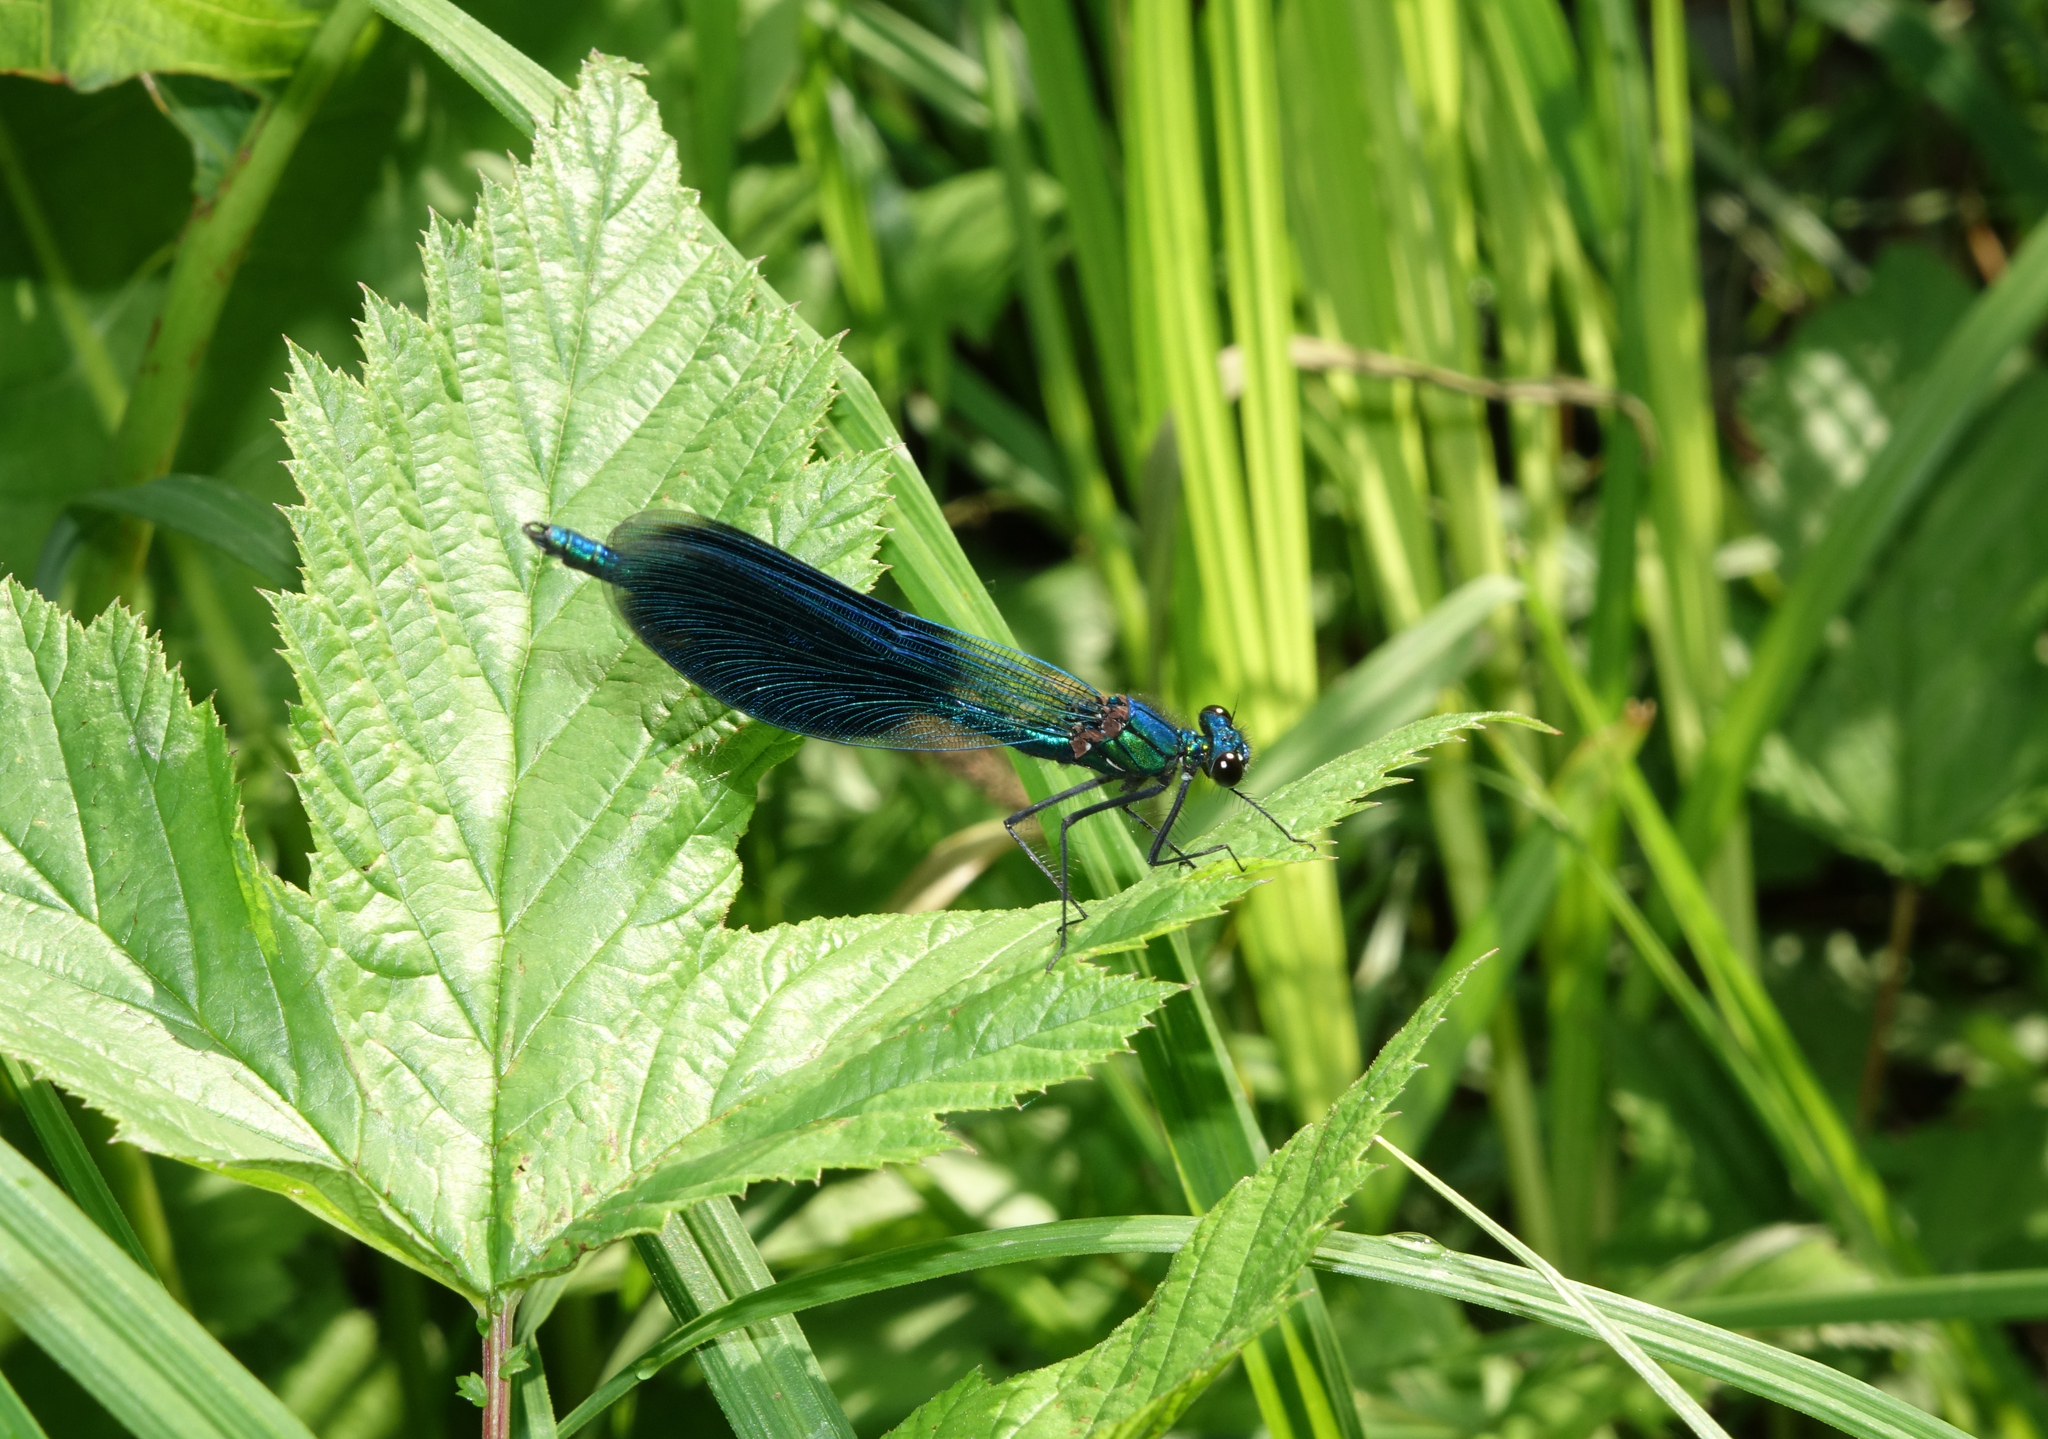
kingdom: Animalia
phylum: Arthropoda
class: Insecta
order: Odonata
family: Calopterygidae
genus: Calopteryx
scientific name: Calopteryx splendens
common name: Banded demoiselle
